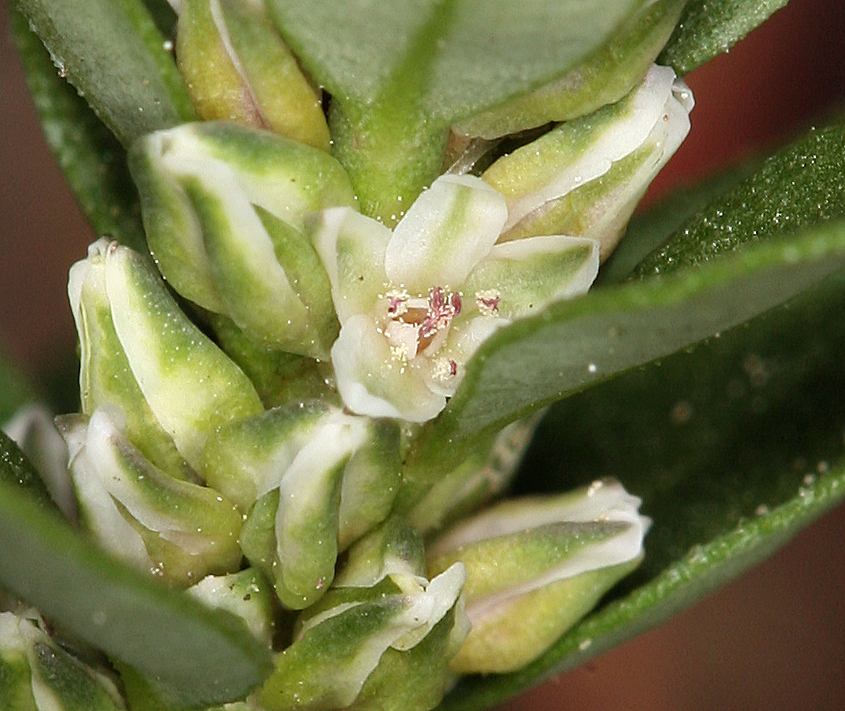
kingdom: Plantae
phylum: Tracheophyta
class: Magnoliopsida
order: Caryophyllales
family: Polygonaceae
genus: Polygonum
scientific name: Polygonum minimum
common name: Broad-leaved knotweed
